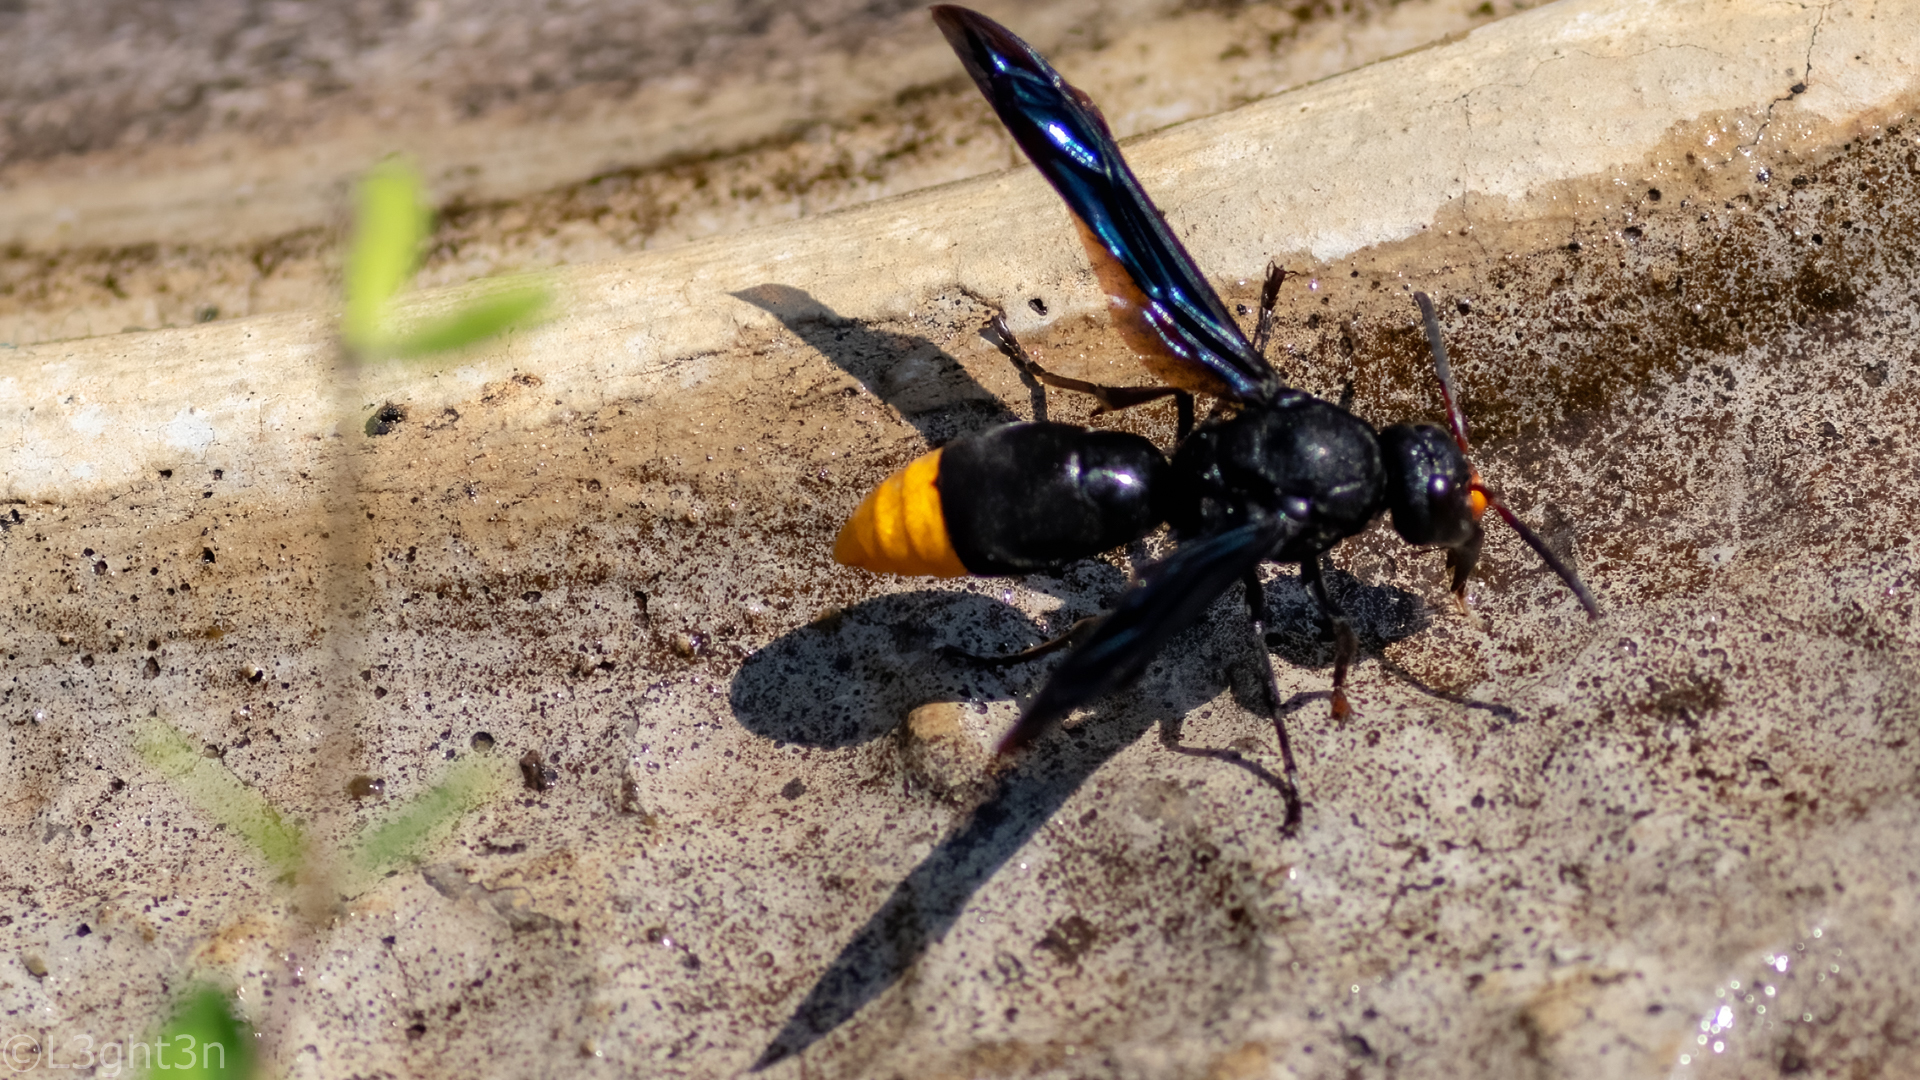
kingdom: Animalia
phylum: Arthropoda
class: Insecta
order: Hymenoptera
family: Vespidae
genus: Synagris
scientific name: Synagris analis
